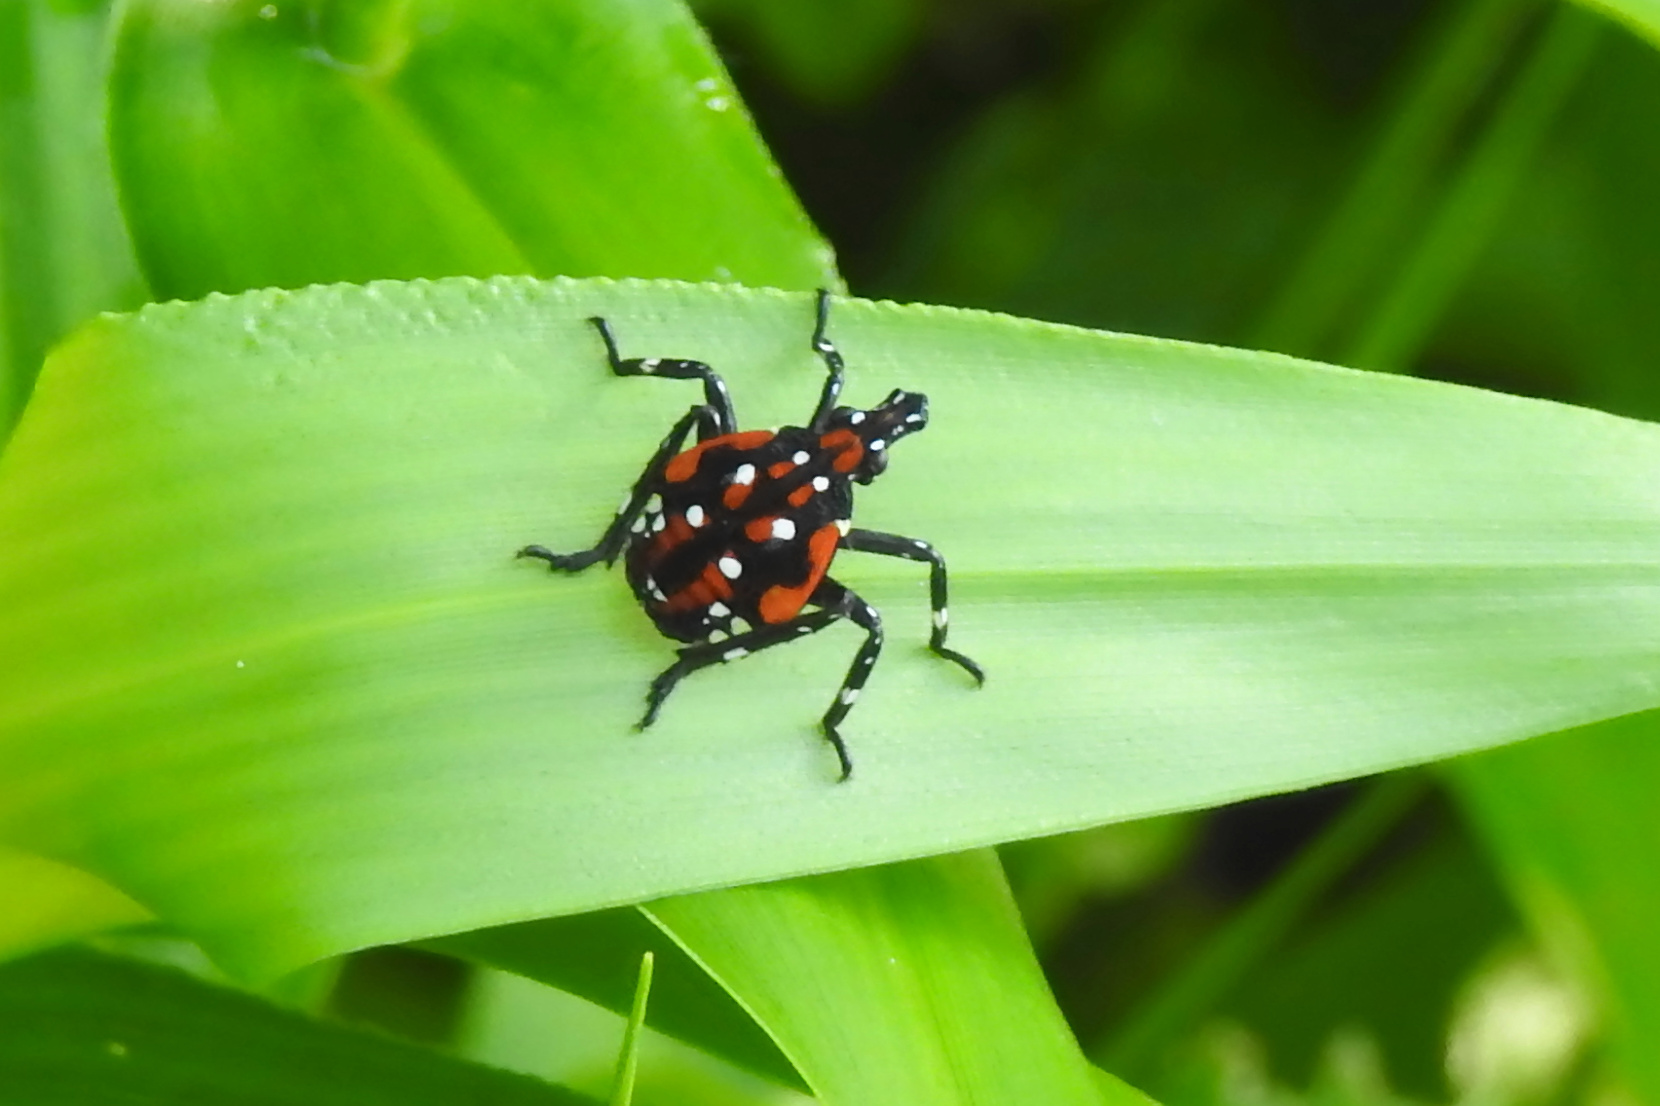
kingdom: Animalia
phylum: Arthropoda
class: Insecta
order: Hemiptera
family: Fulgoridae
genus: Lycorma
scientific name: Lycorma delicatula
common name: Spotted lanternfly
